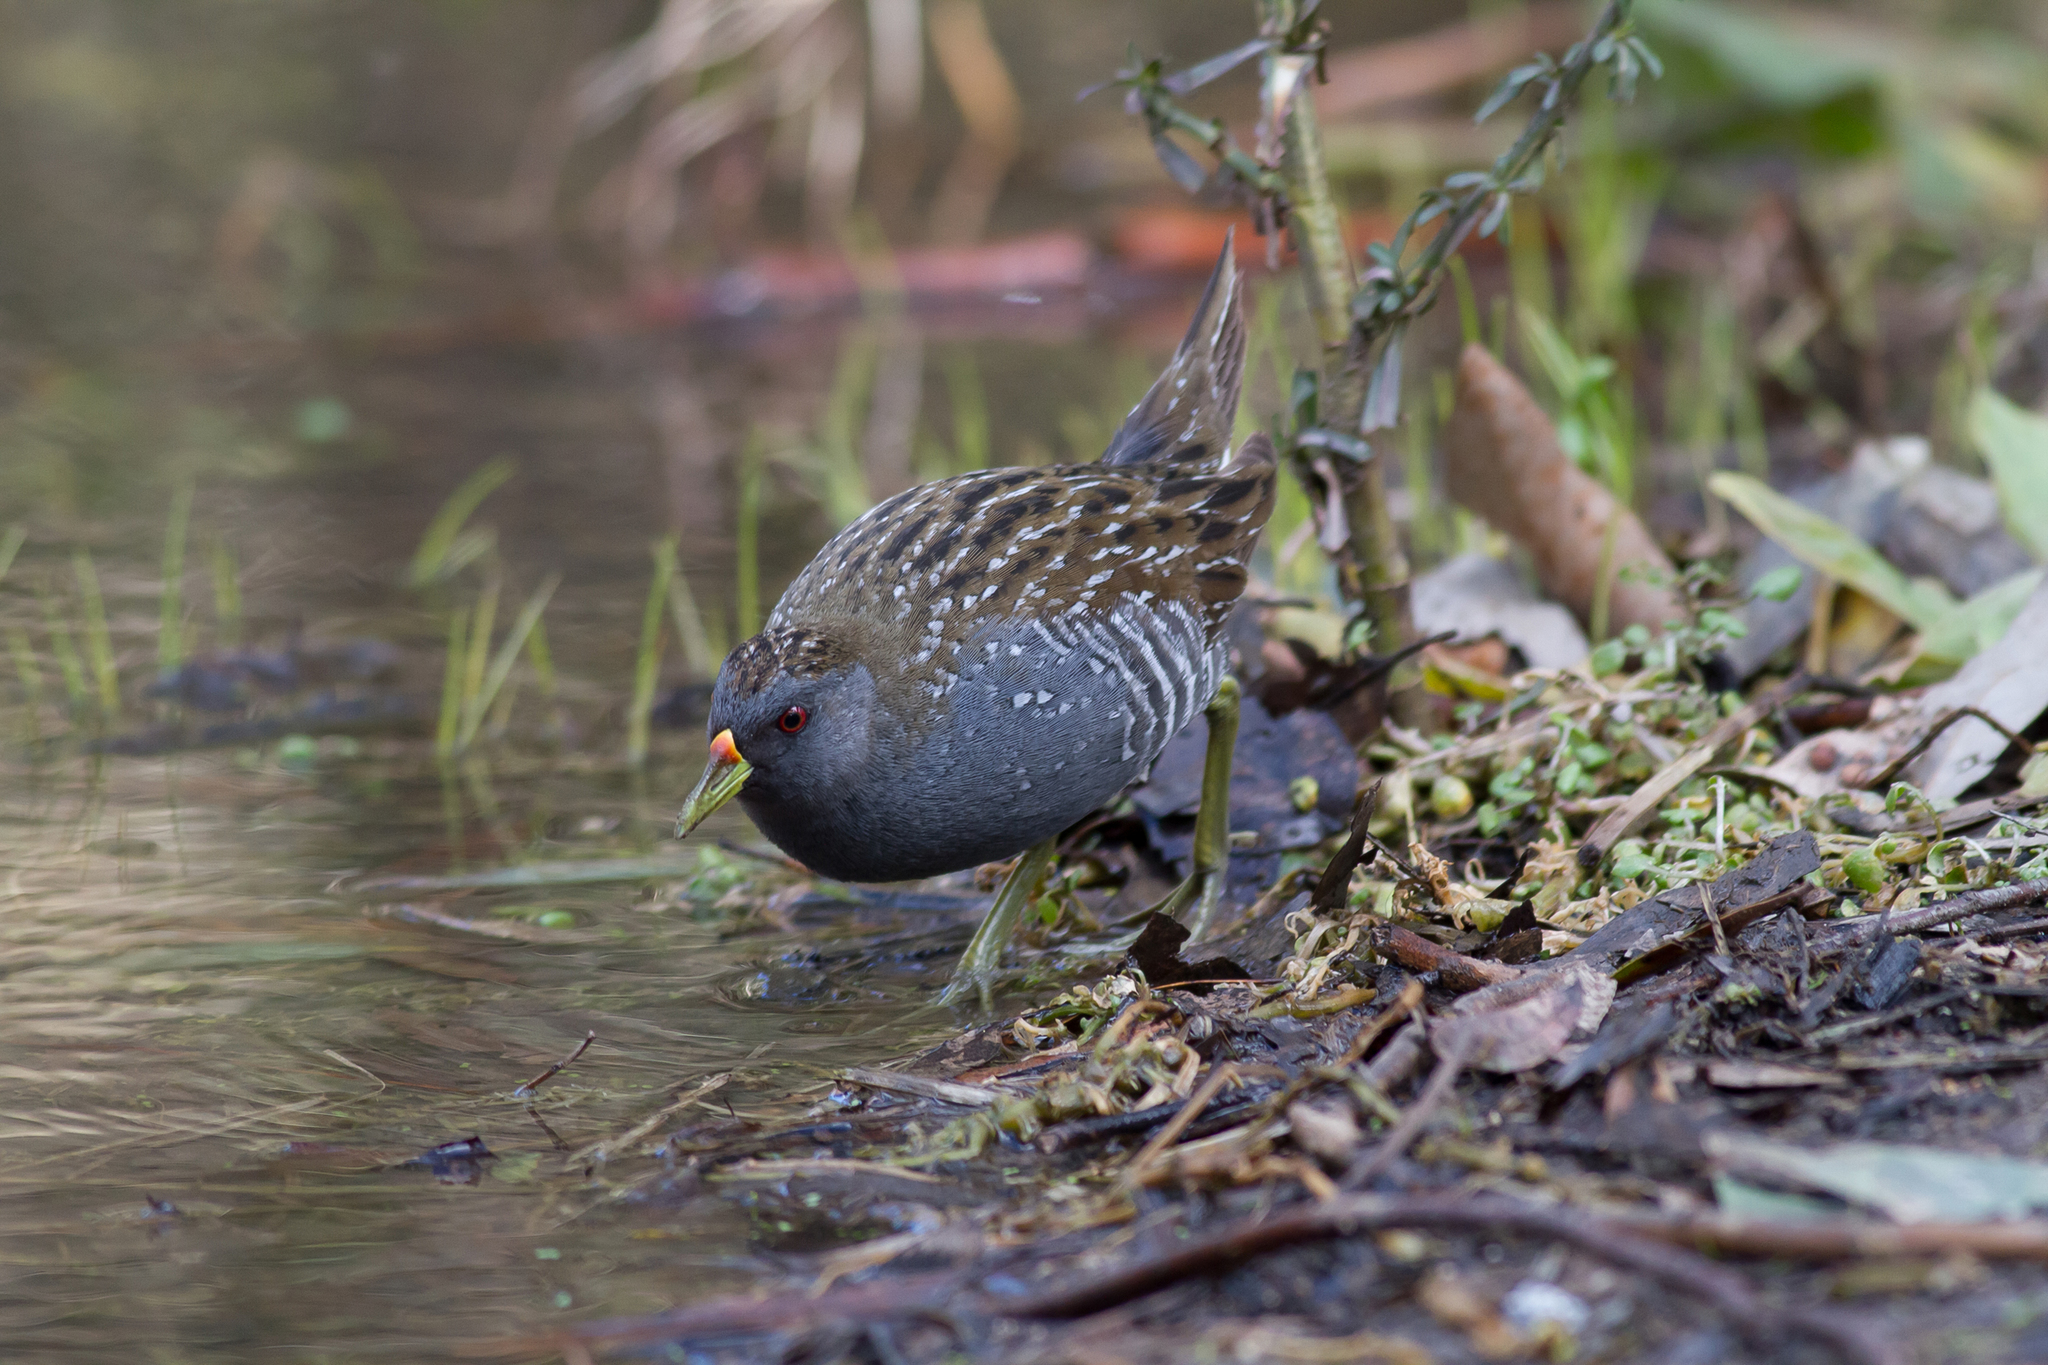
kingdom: Animalia
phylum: Chordata
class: Aves
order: Gruiformes
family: Rallidae
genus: Porzana
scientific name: Porzana fluminea
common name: Australian crake
